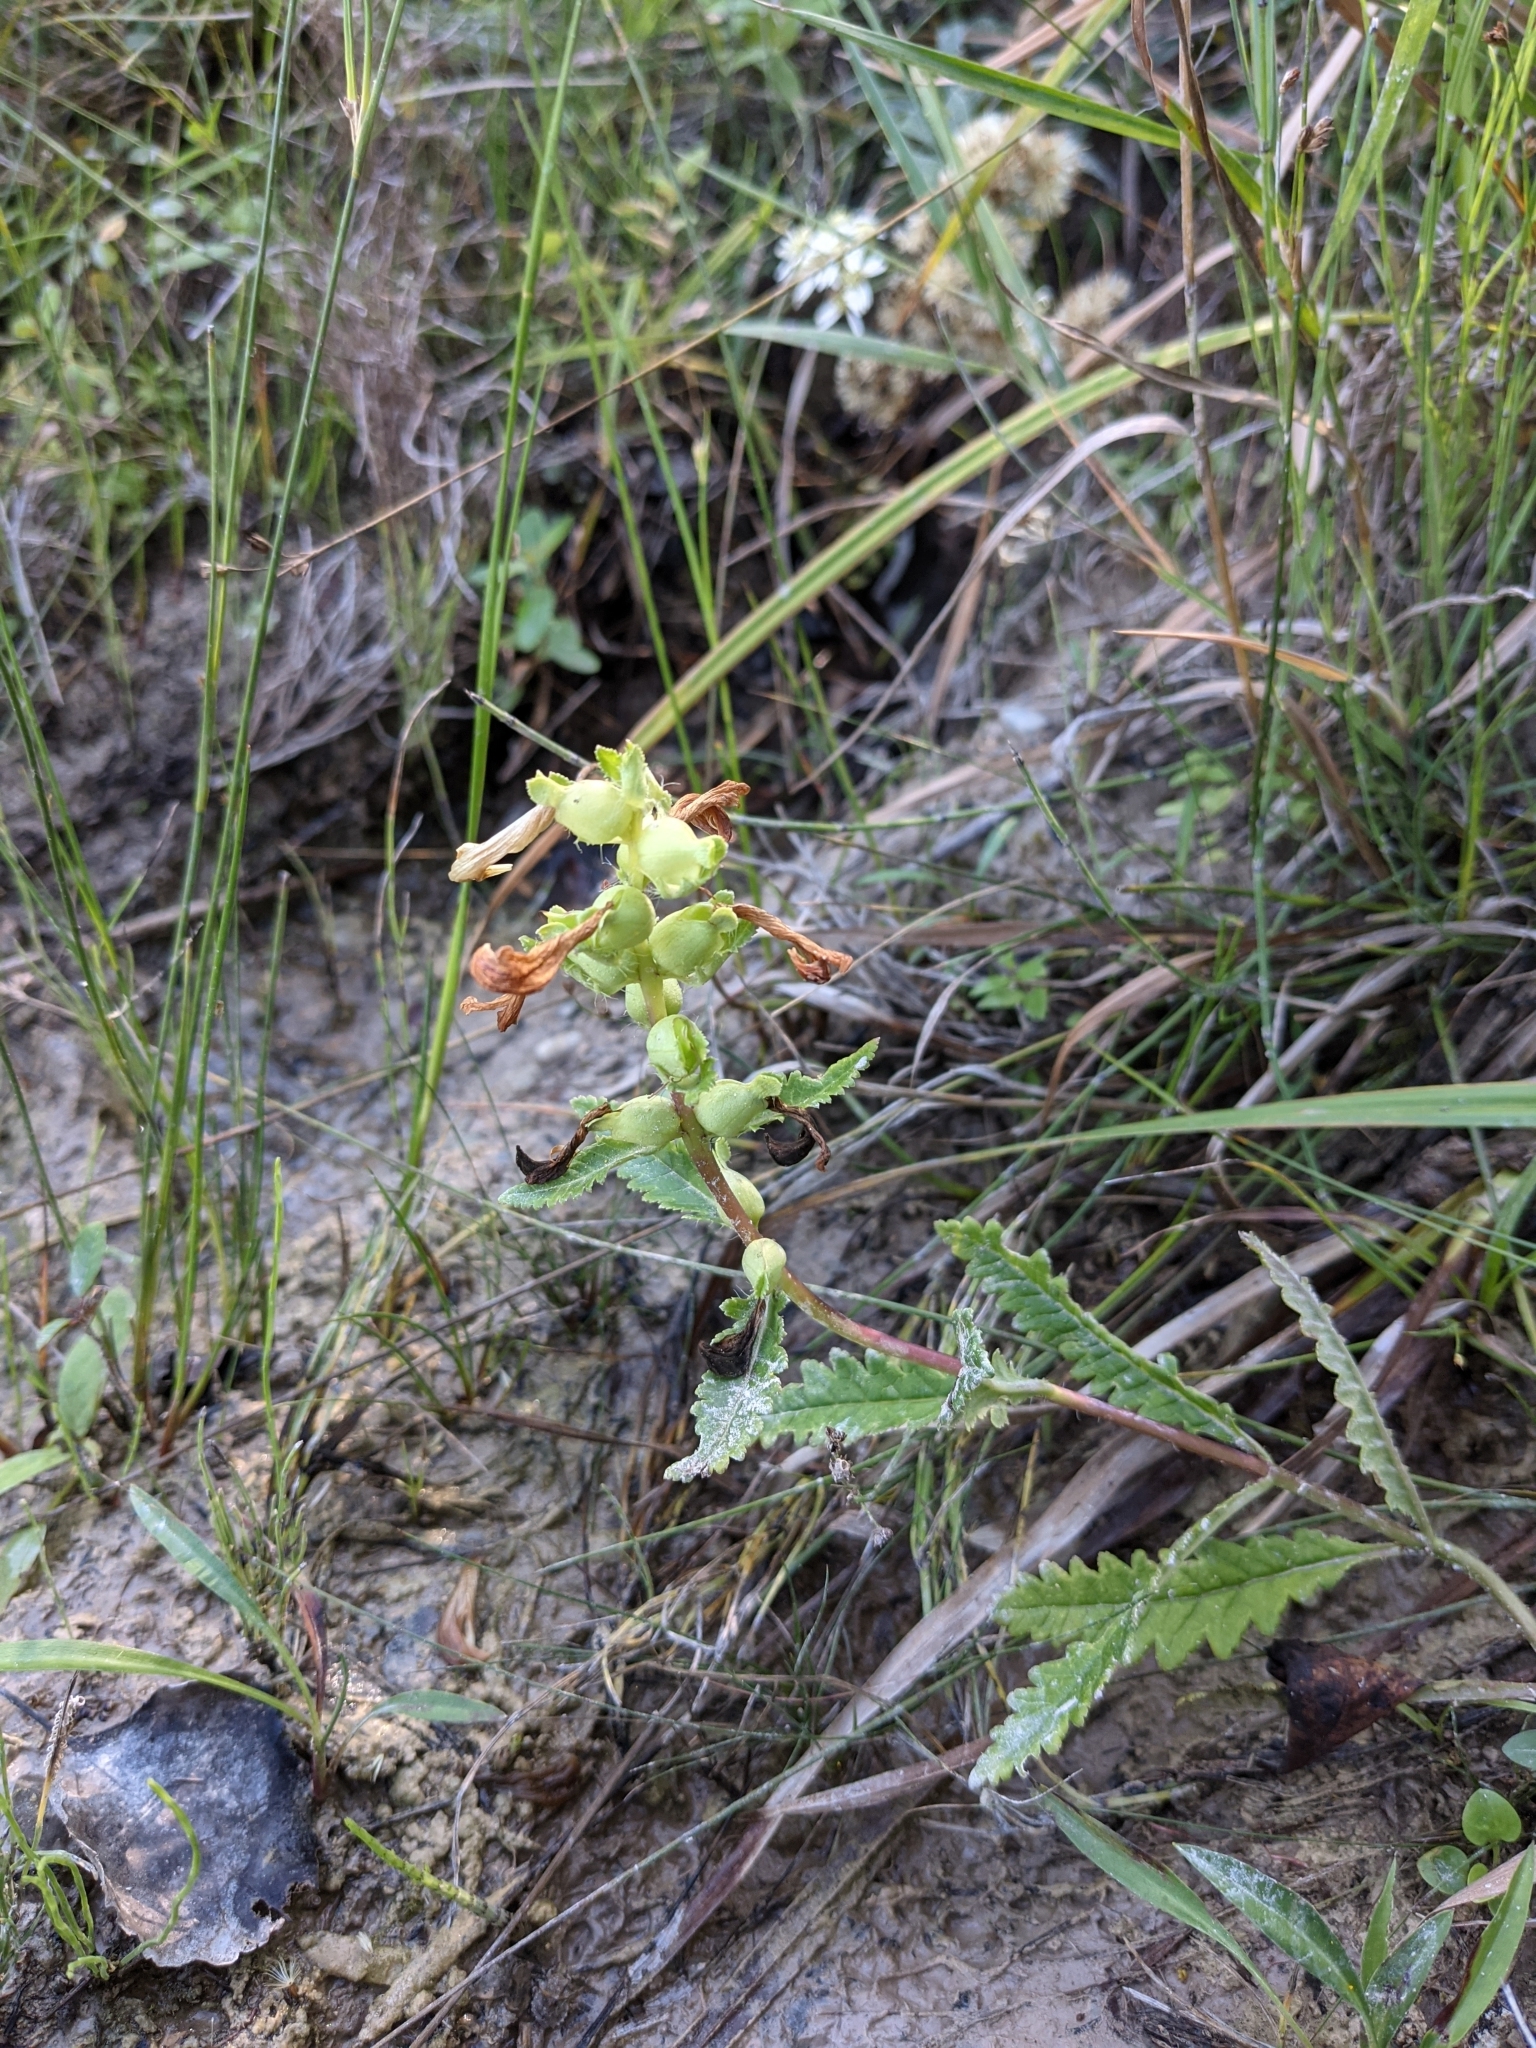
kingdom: Plantae
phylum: Tracheophyta
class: Magnoliopsida
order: Lamiales
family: Orobanchaceae
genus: Pedicularis
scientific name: Pedicularis lanceolata
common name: Swamp lousewort
